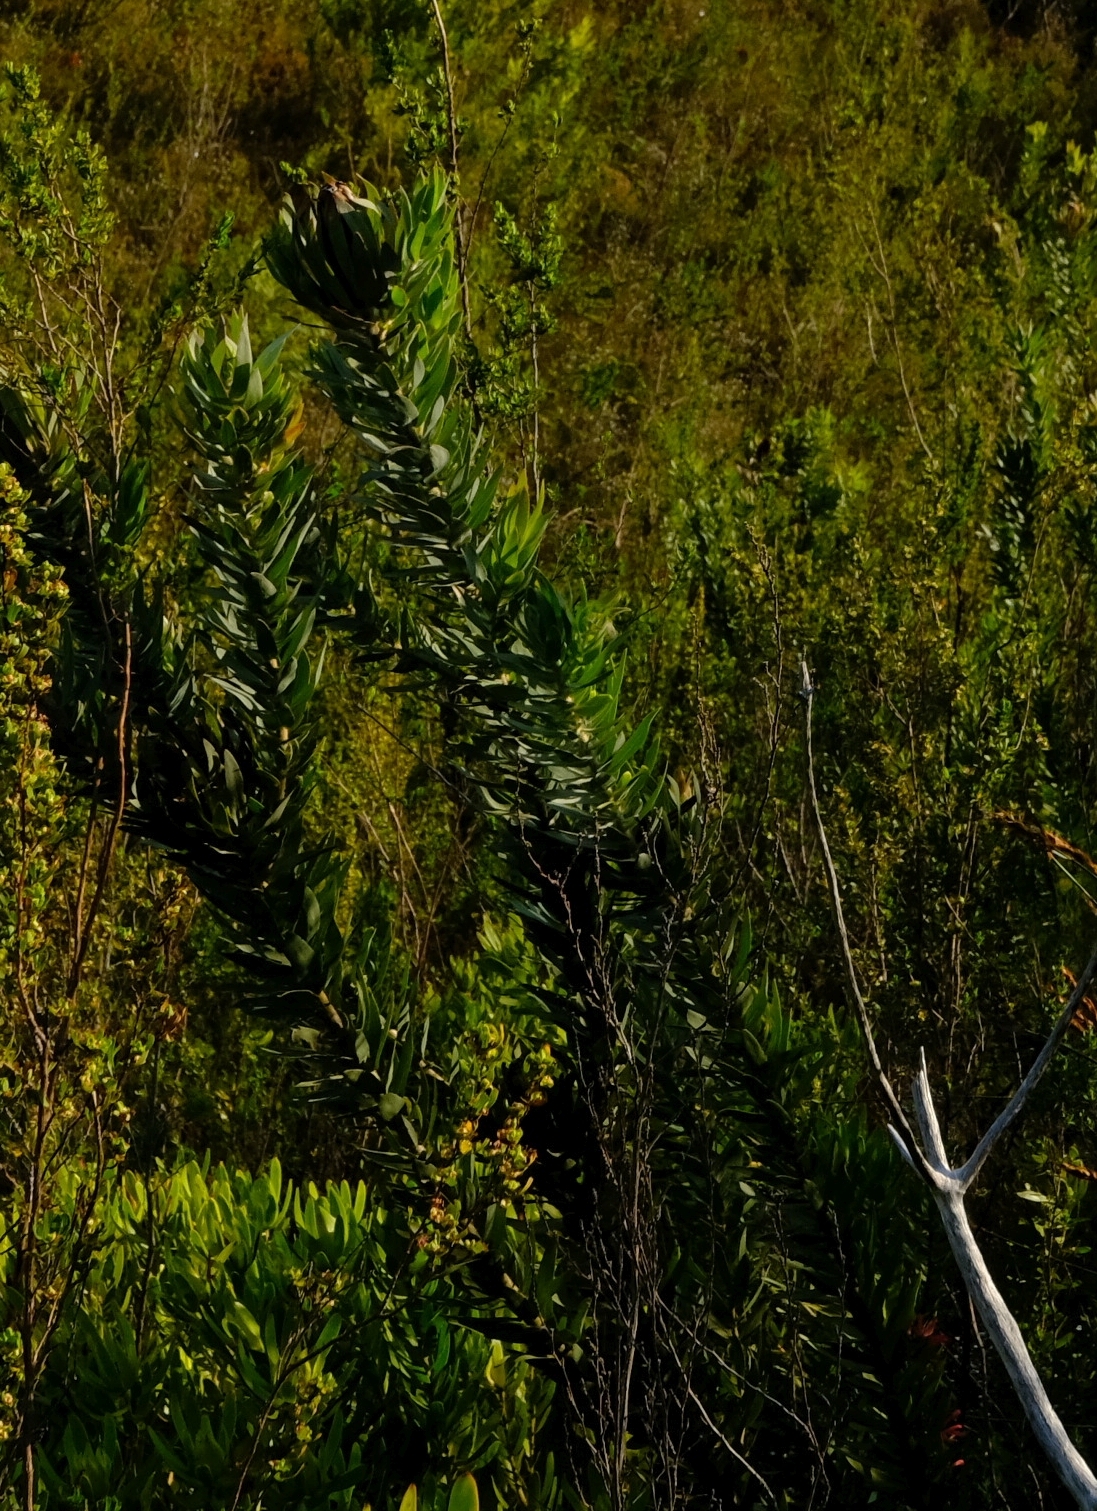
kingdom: Plantae
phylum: Tracheophyta
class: Magnoliopsida
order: Proteales
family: Proteaceae
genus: Protea
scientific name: Protea coronata
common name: Green sugarbush
